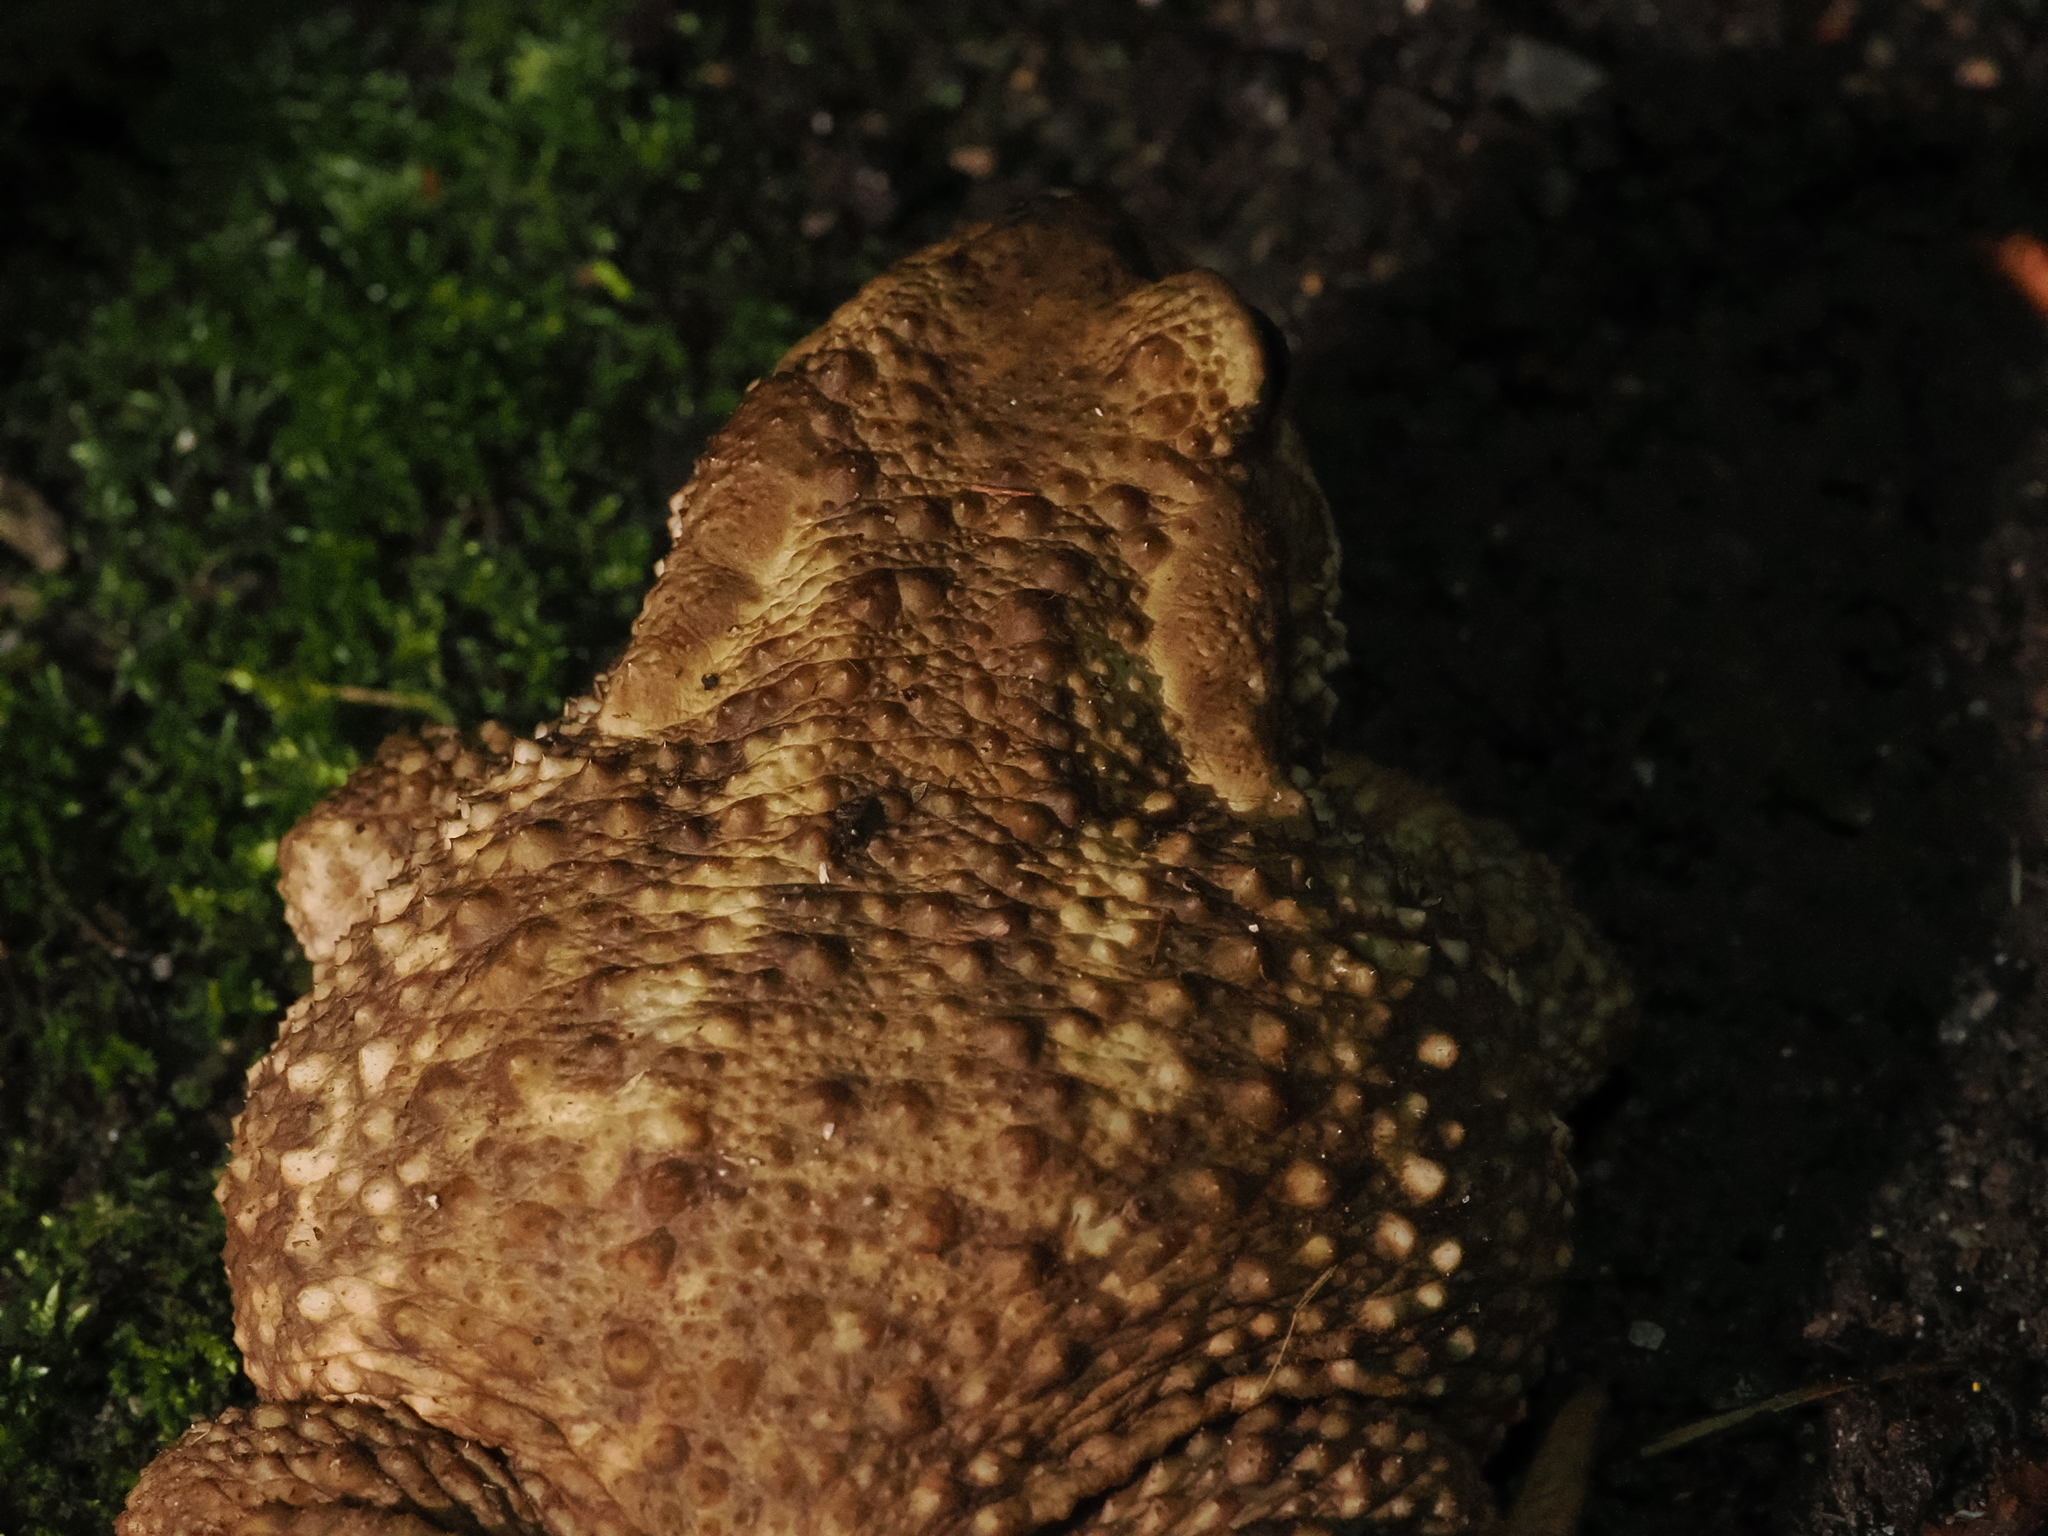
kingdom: Animalia
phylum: Chordata
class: Amphibia
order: Anura
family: Bufonidae
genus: Bufo
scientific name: Bufo spinosus
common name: Western common toad
